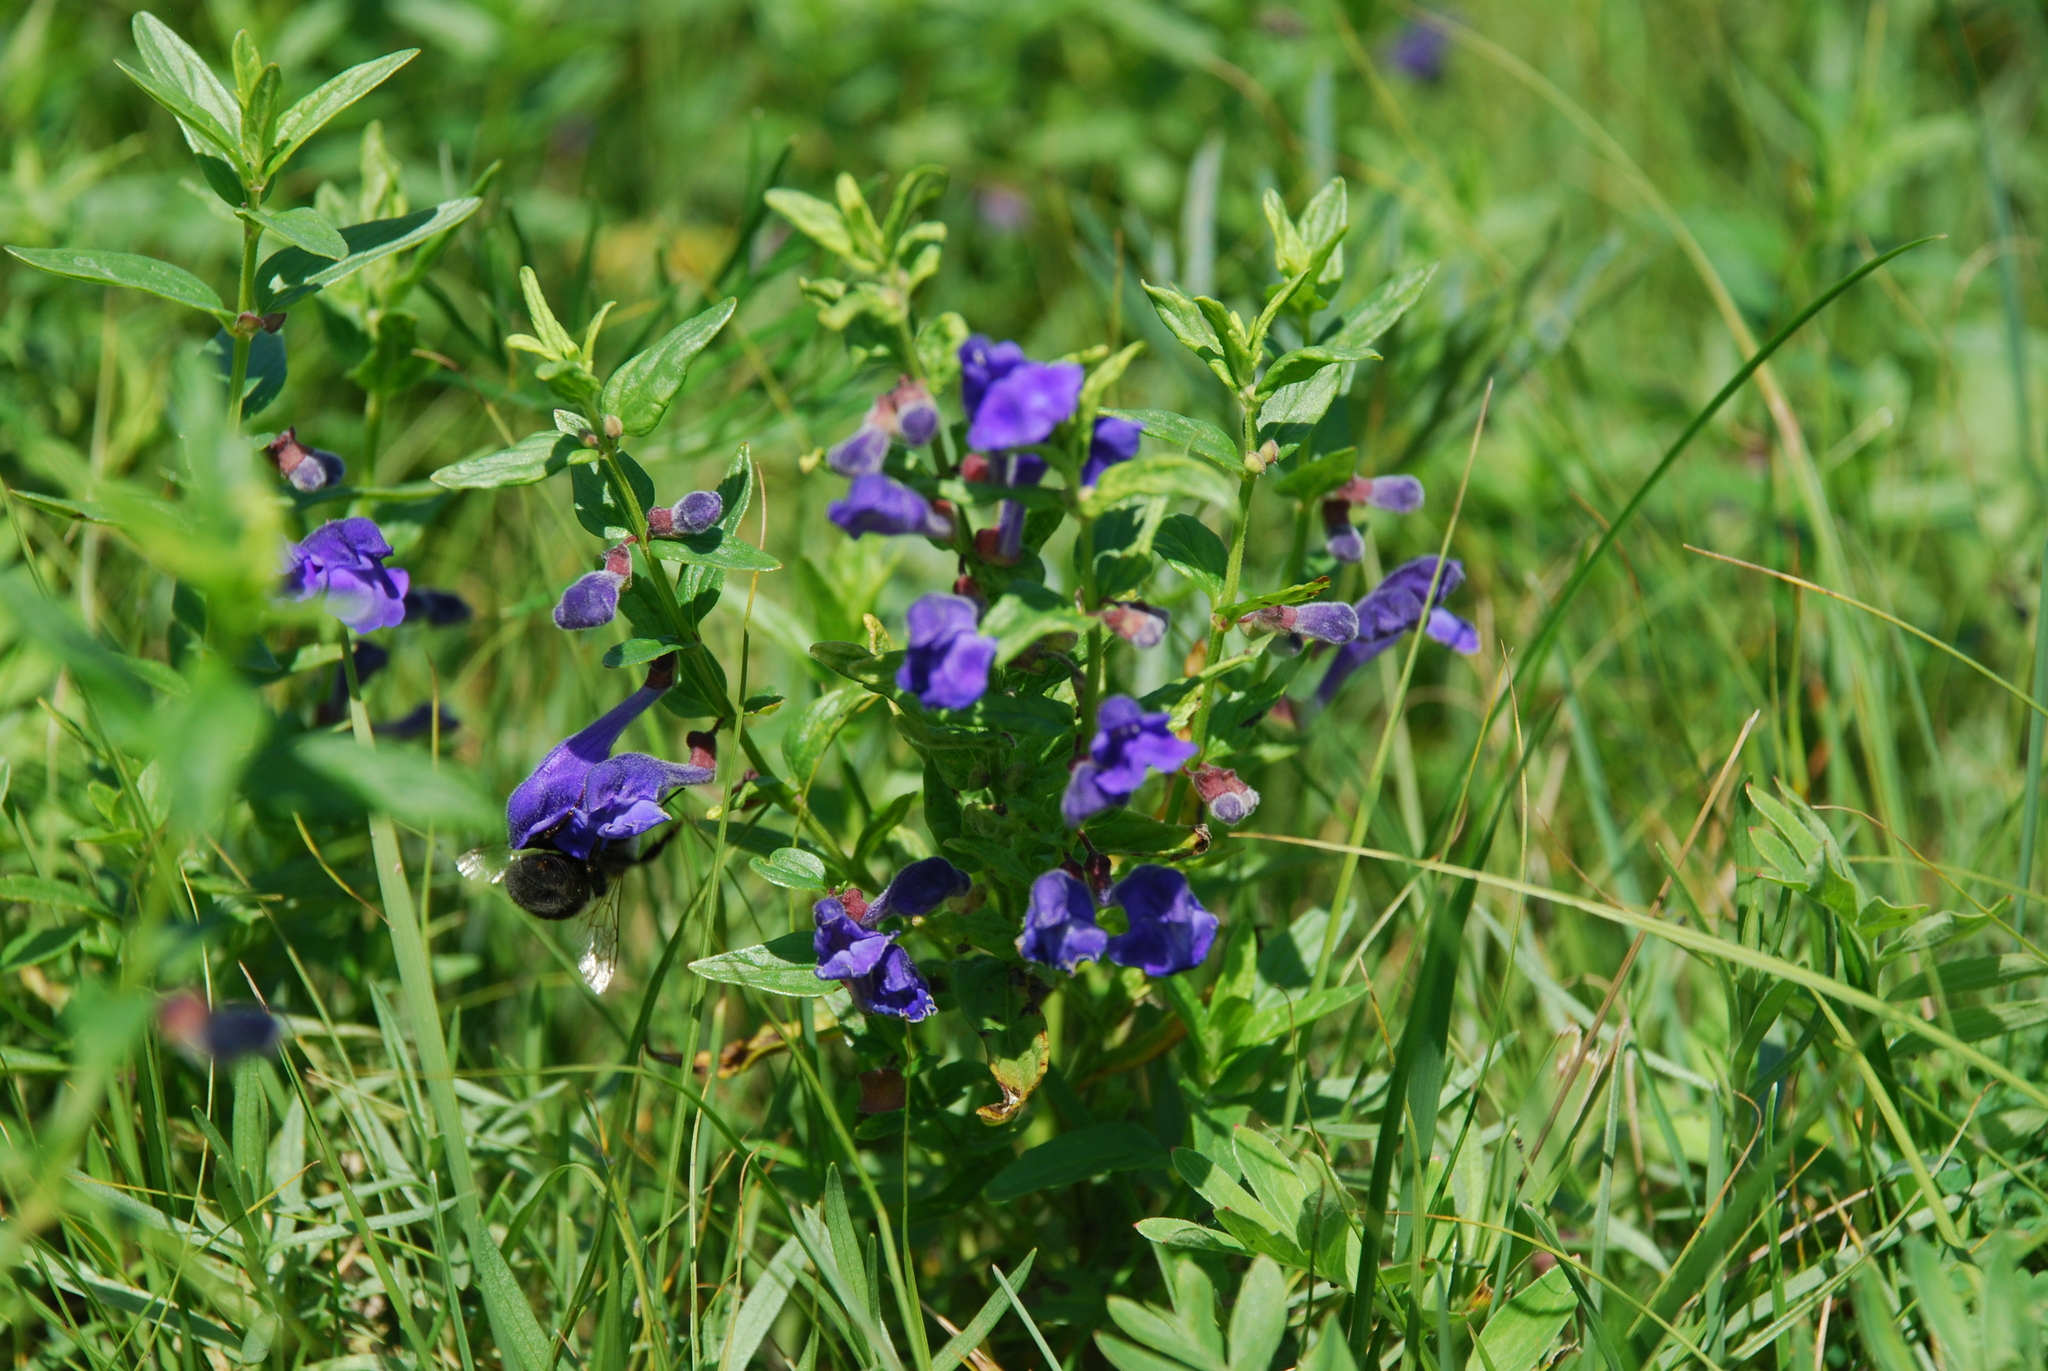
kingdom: Plantae
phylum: Tracheophyta
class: Magnoliopsida
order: Lamiales
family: Lamiaceae
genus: Scutellaria
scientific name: Scutellaria scordiifolia
